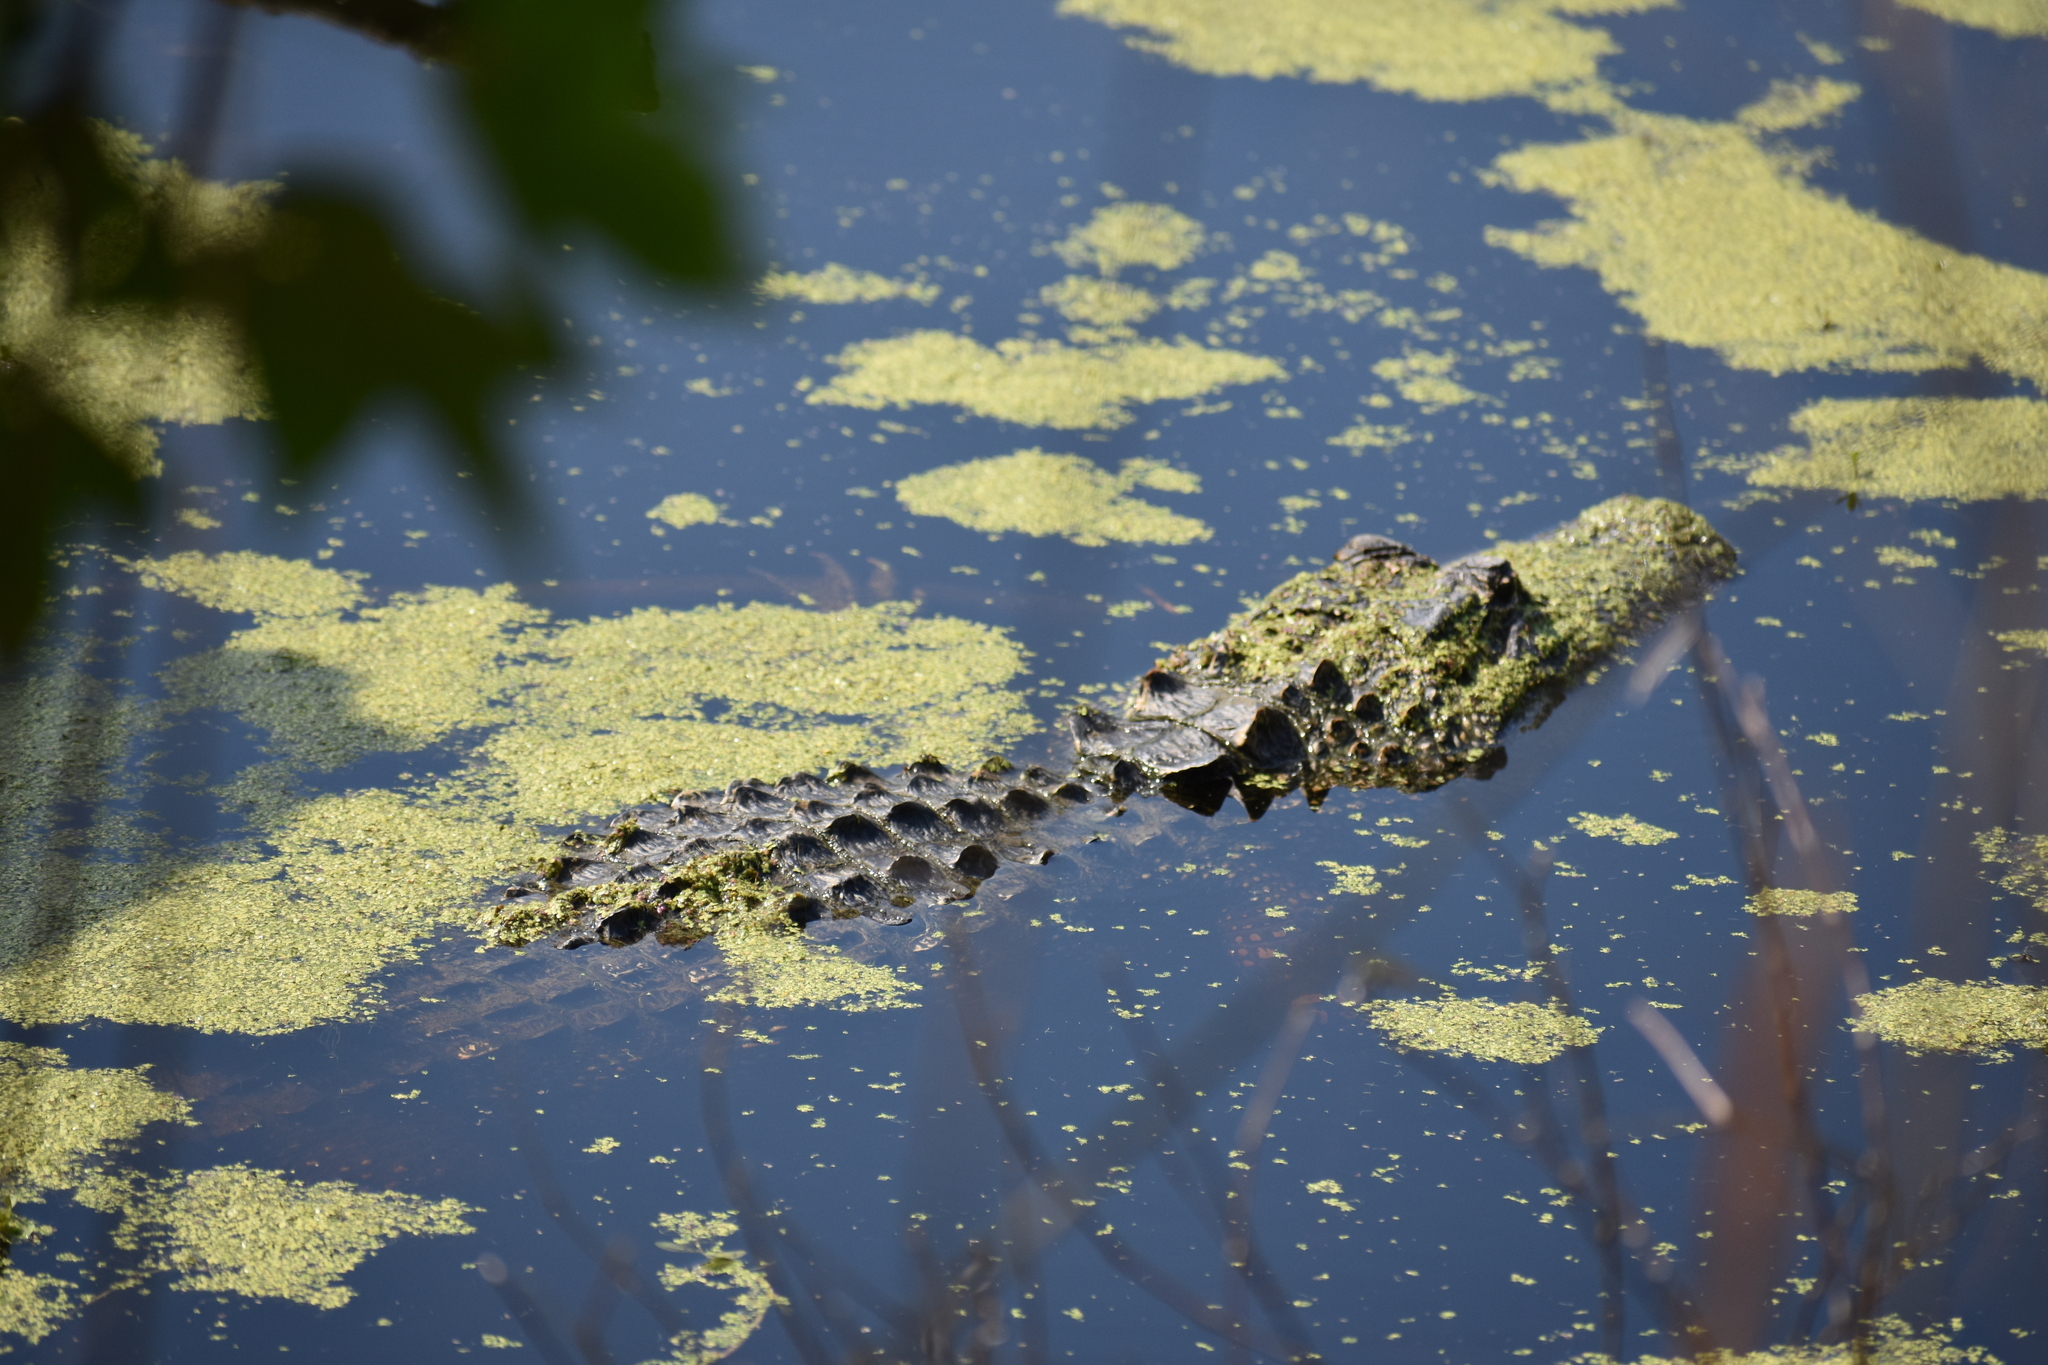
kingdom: Animalia
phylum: Chordata
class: Crocodylia
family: Alligatoridae
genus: Alligator
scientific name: Alligator mississippiensis
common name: American alligator
